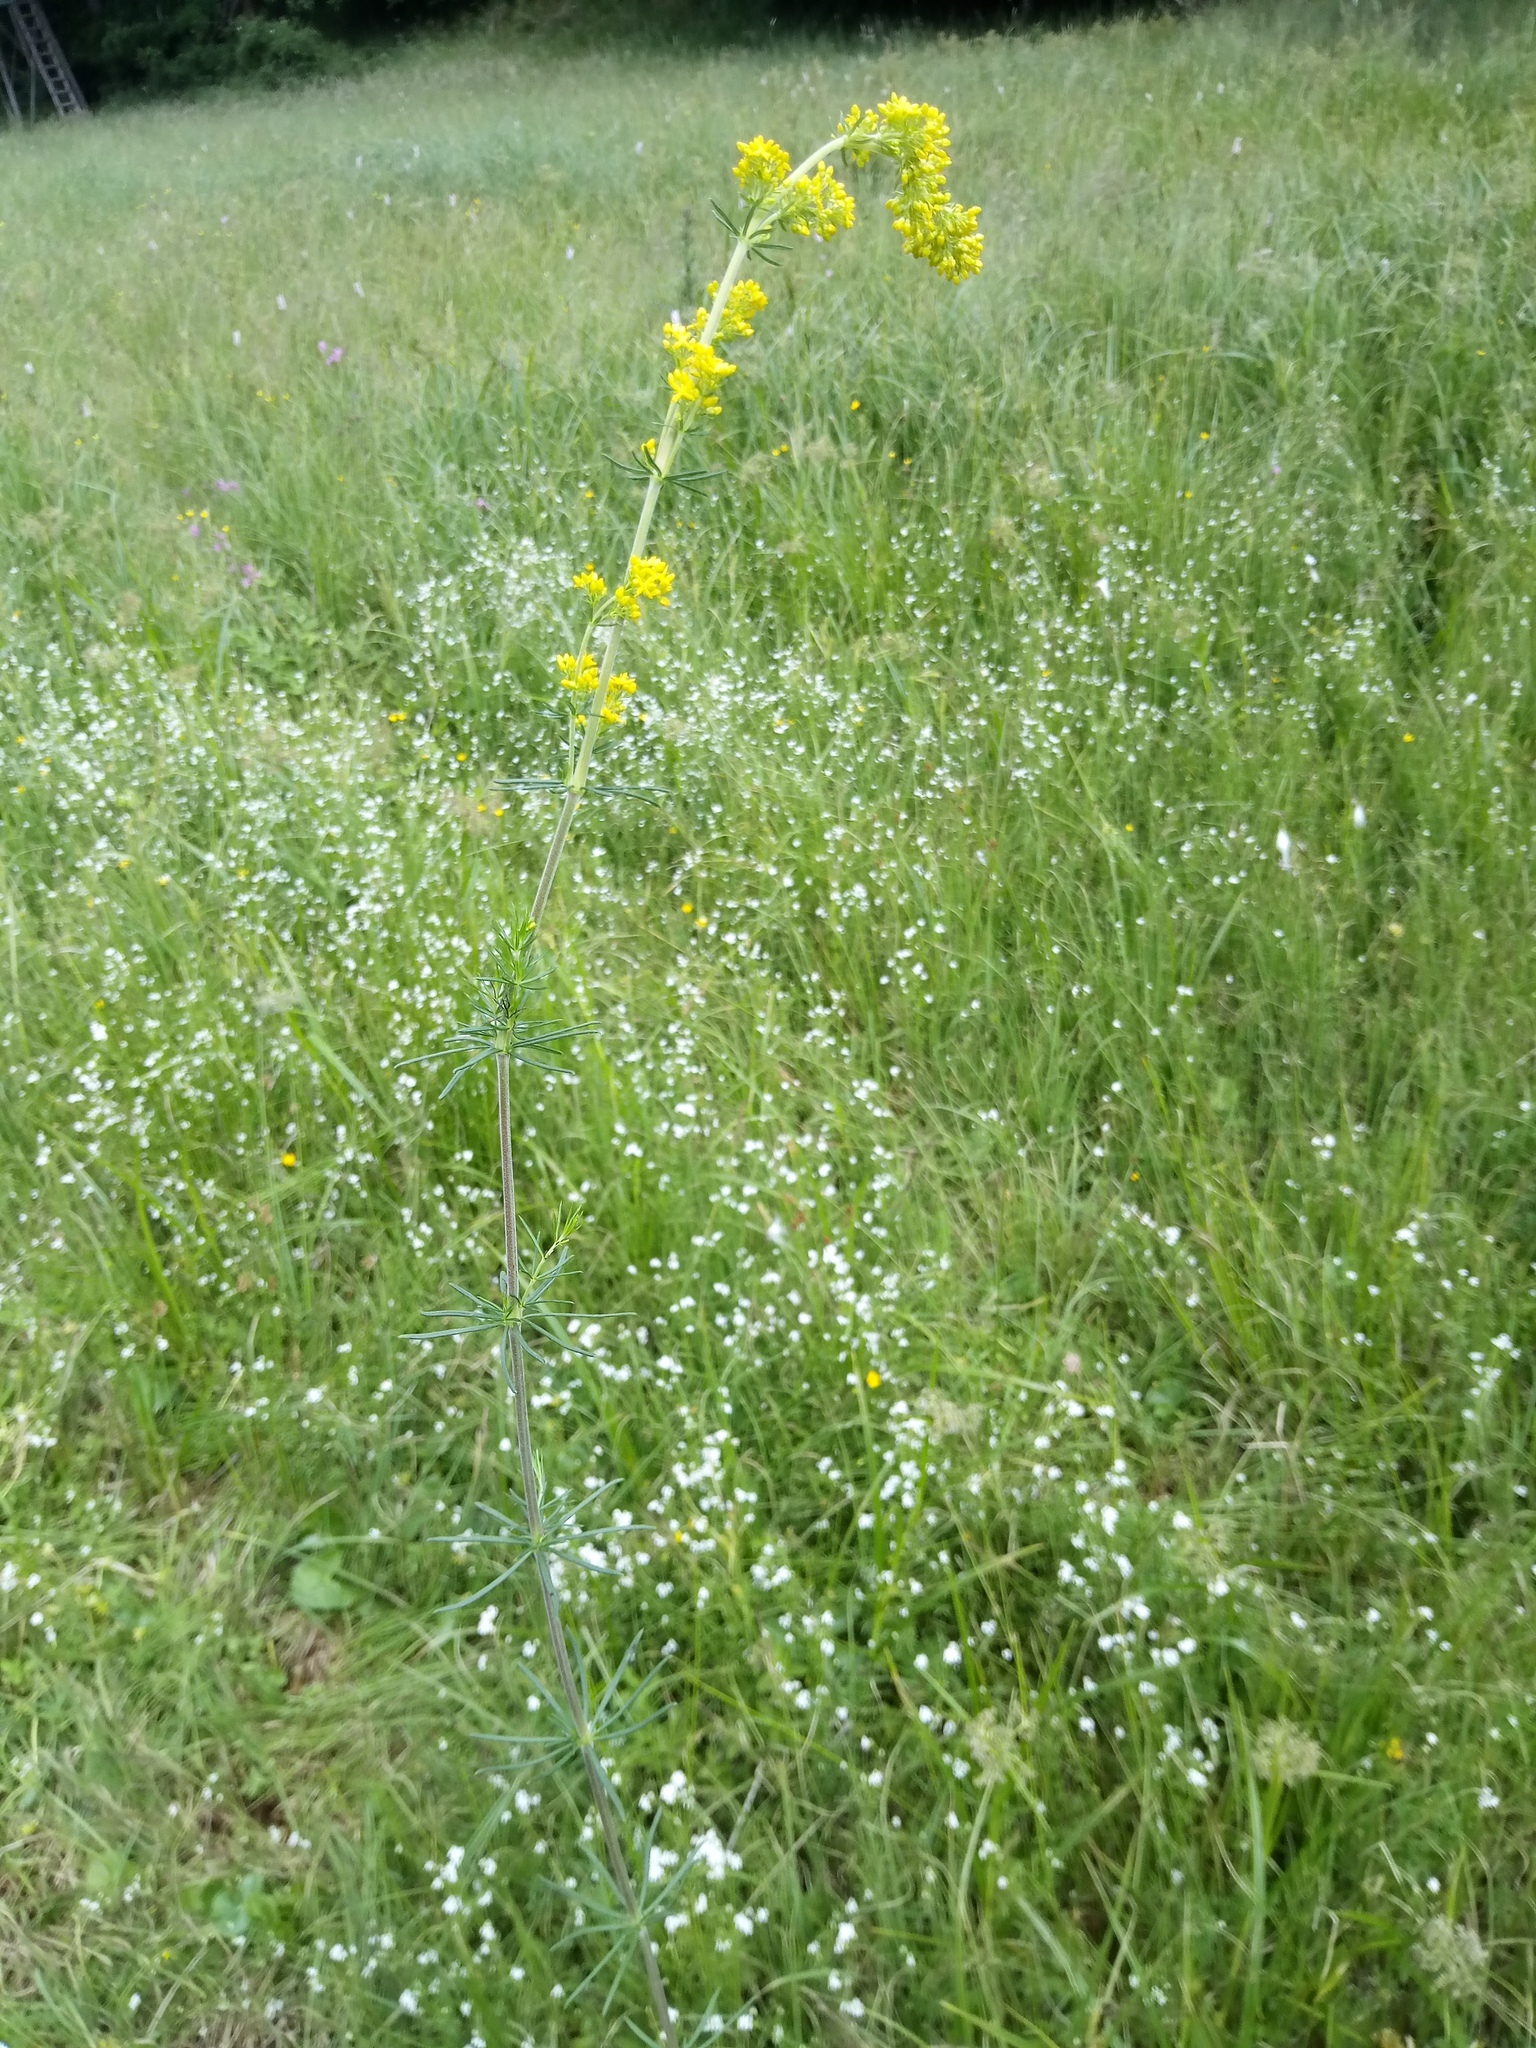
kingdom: Plantae
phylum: Tracheophyta
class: Magnoliopsida
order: Gentianales
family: Rubiaceae
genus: Galium
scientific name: Galium verum
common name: Lady's bedstraw
